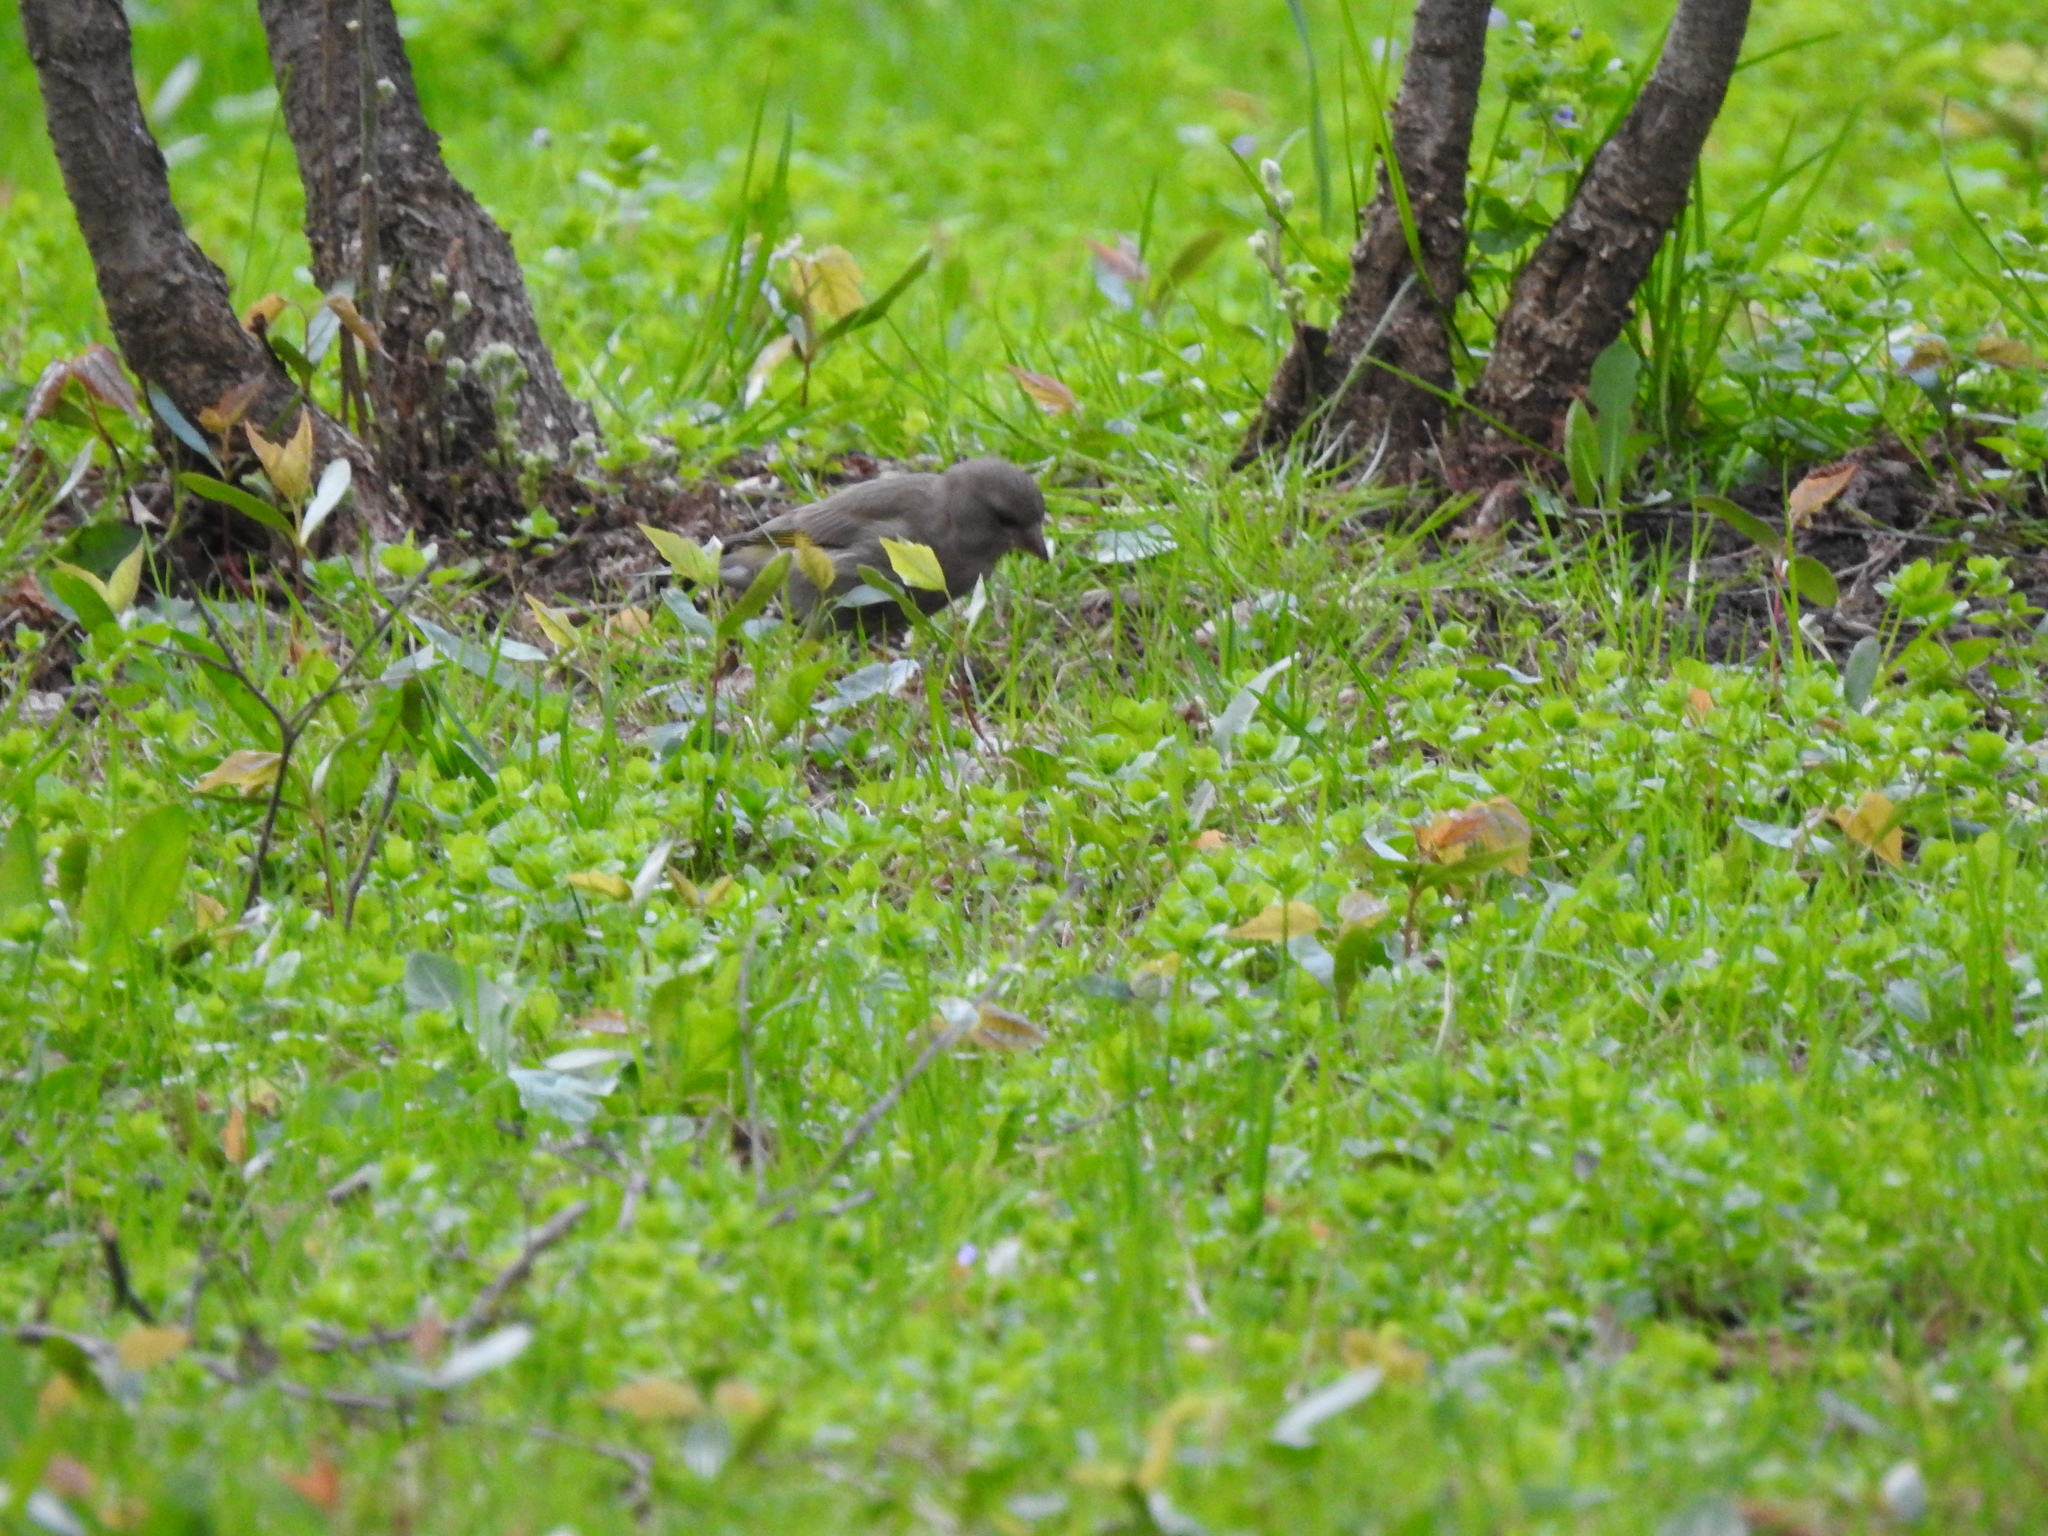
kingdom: Plantae
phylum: Tracheophyta
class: Liliopsida
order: Poales
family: Poaceae
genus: Chloris
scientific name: Chloris chloris
